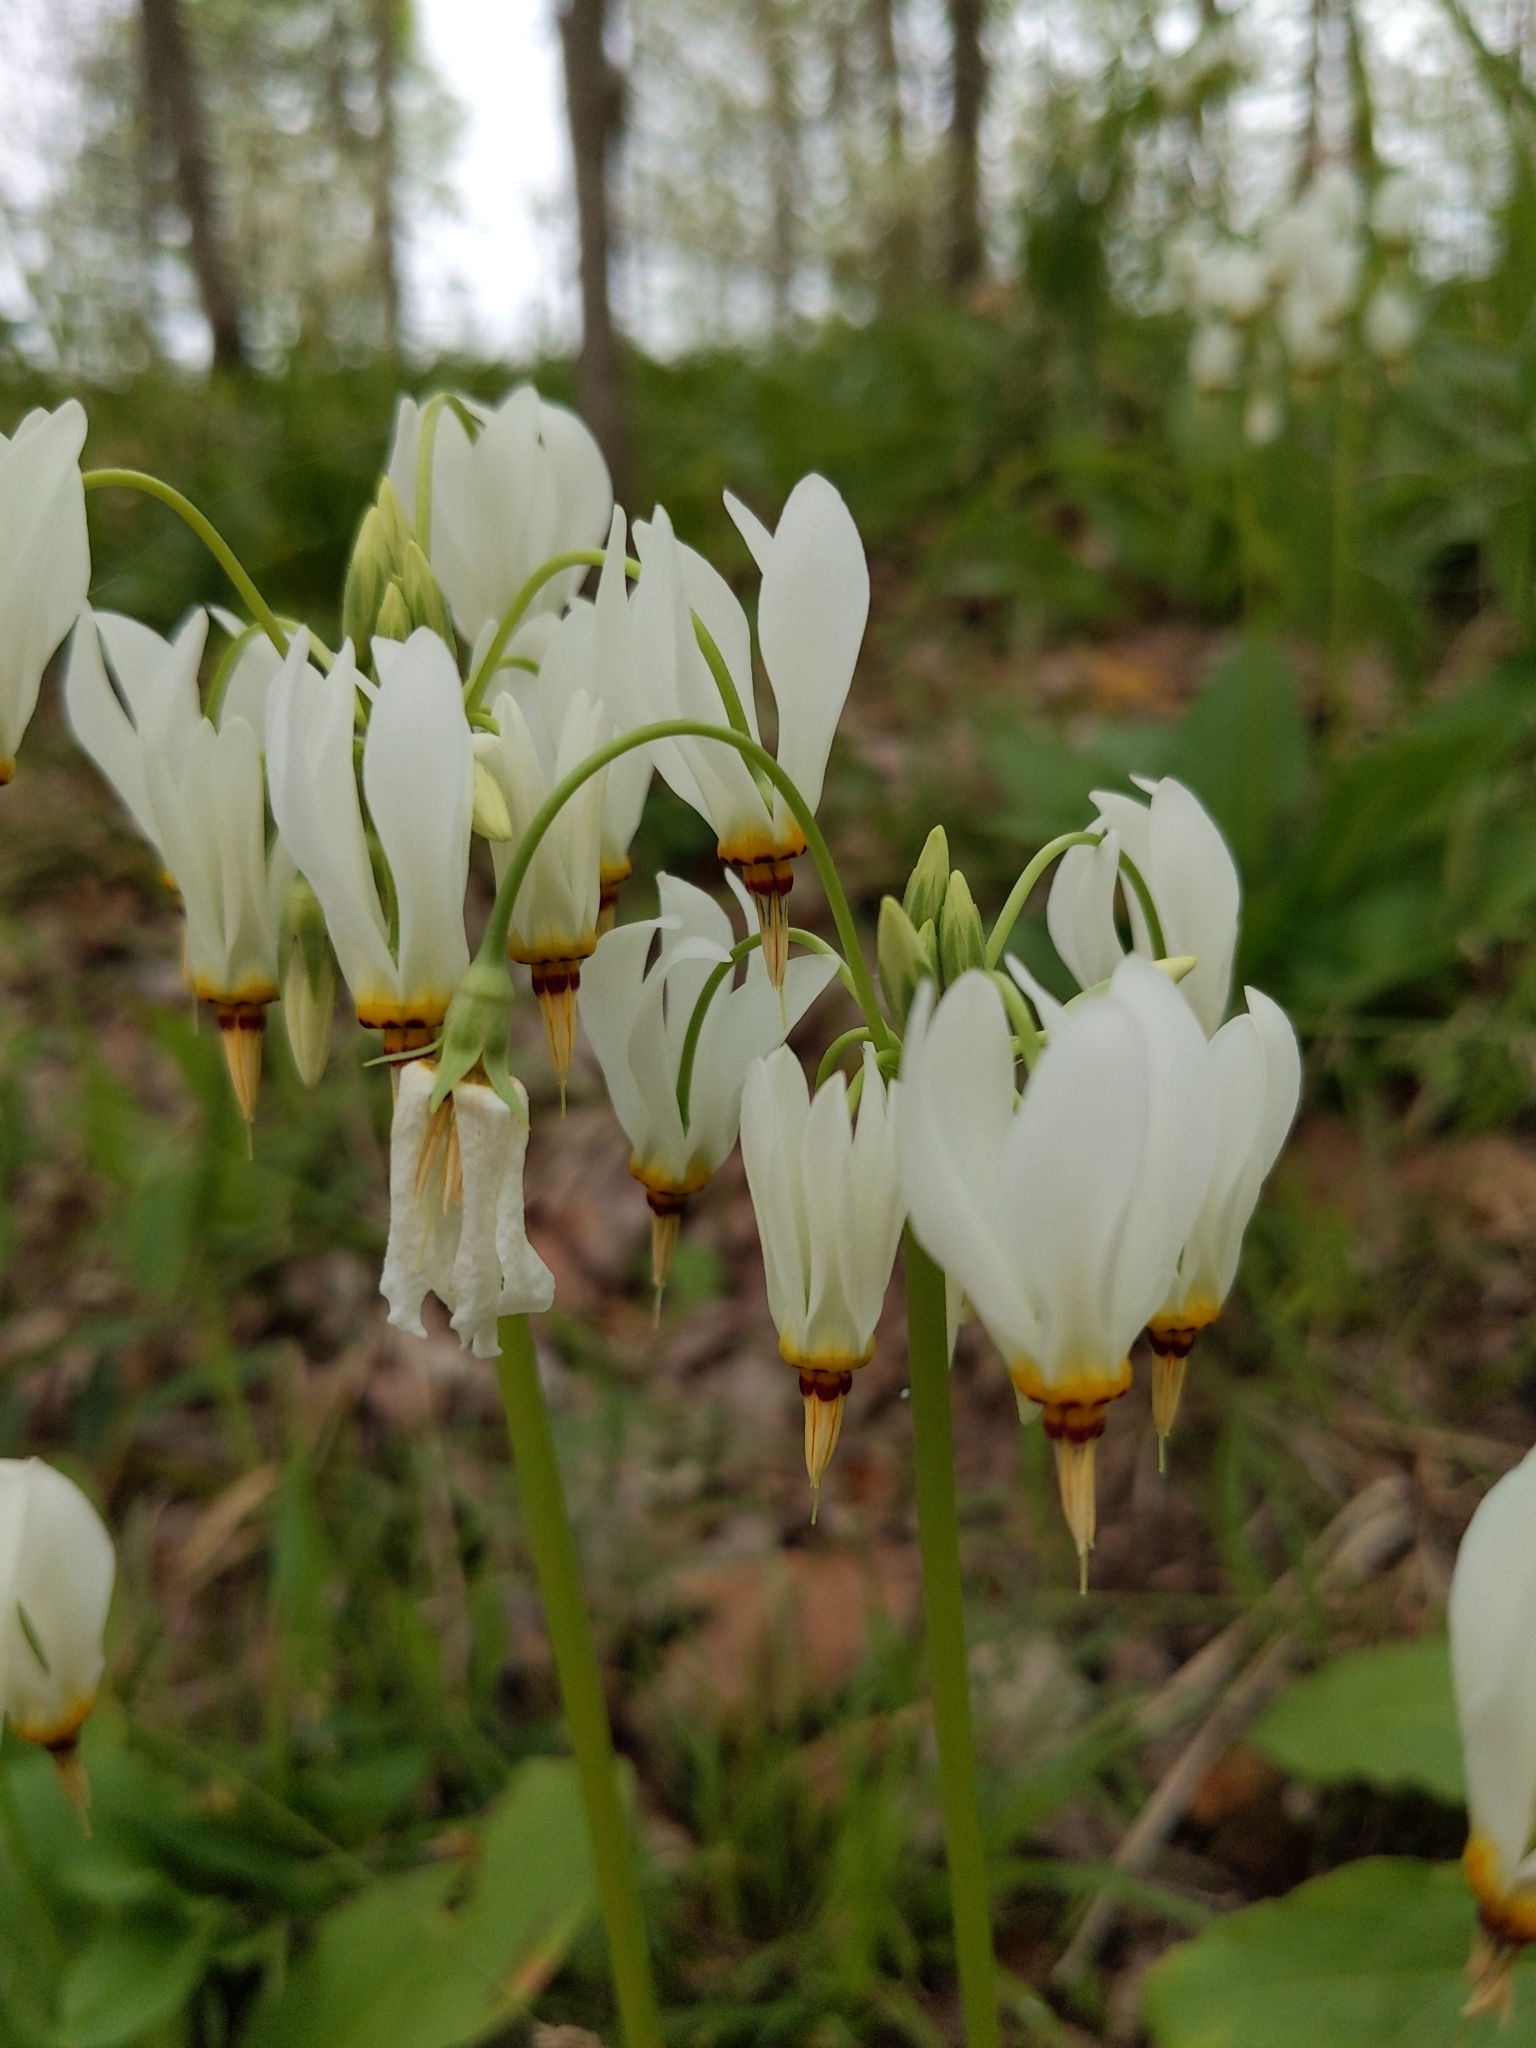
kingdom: Plantae
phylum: Tracheophyta
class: Magnoliopsida
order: Ericales
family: Primulaceae
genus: Dodecatheon
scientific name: Dodecatheon meadia
